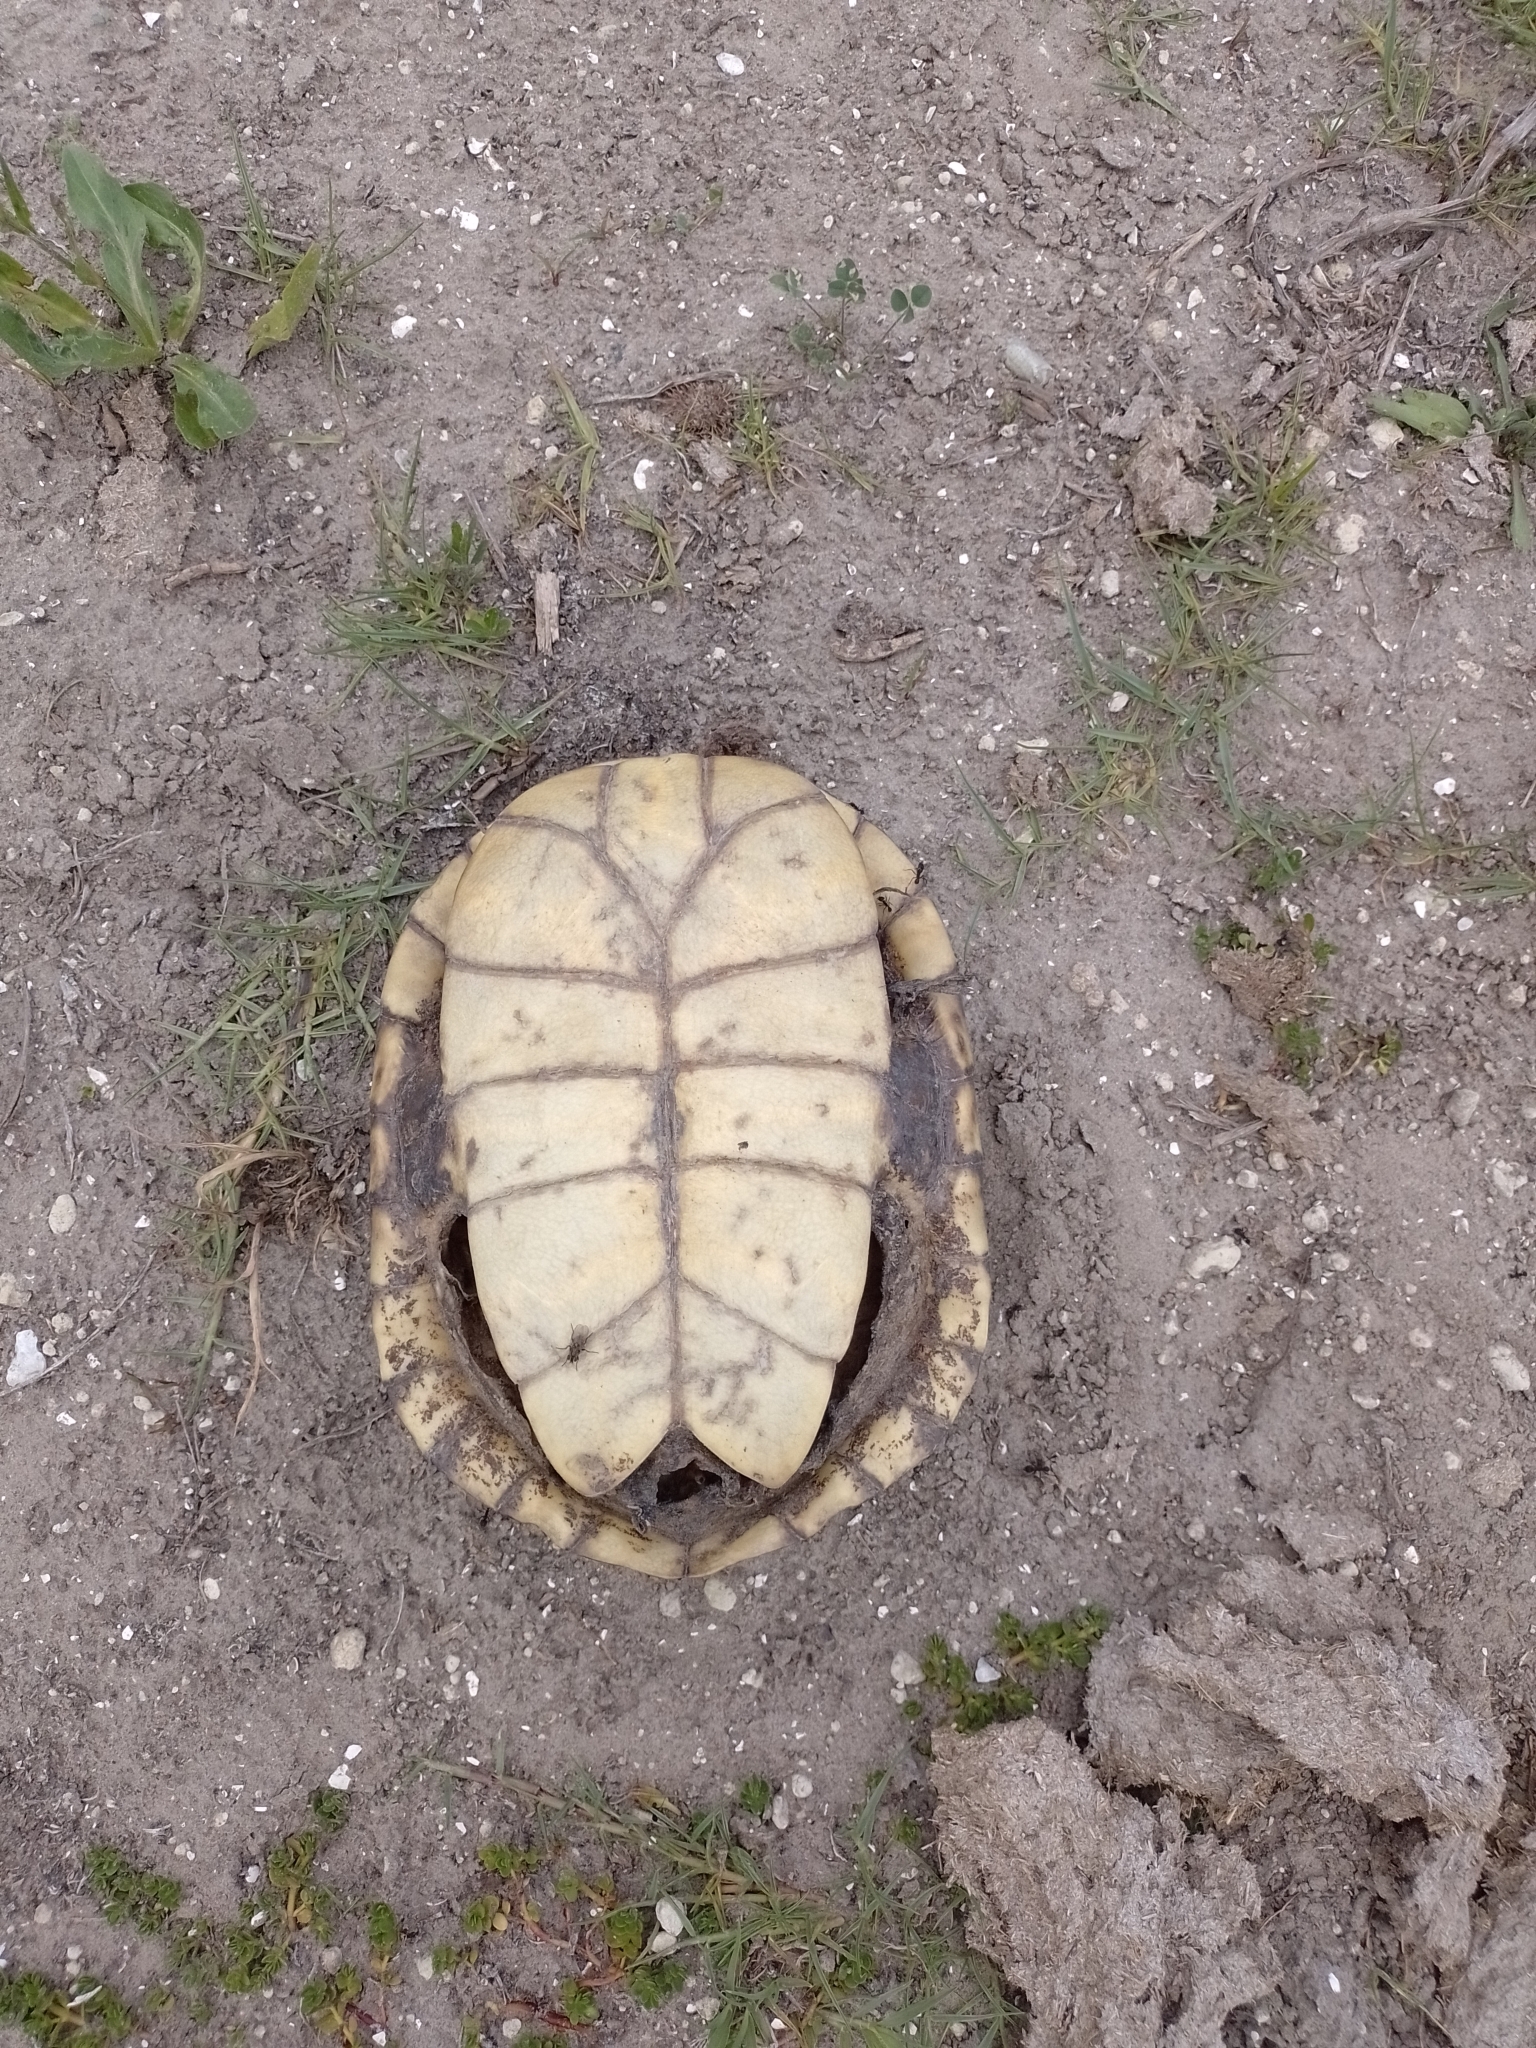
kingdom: Animalia
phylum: Chordata
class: Testudines
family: Chelidae
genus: Hydromedusa
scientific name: Hydromedusa tectifera
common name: Argentine snake-necked turtle
